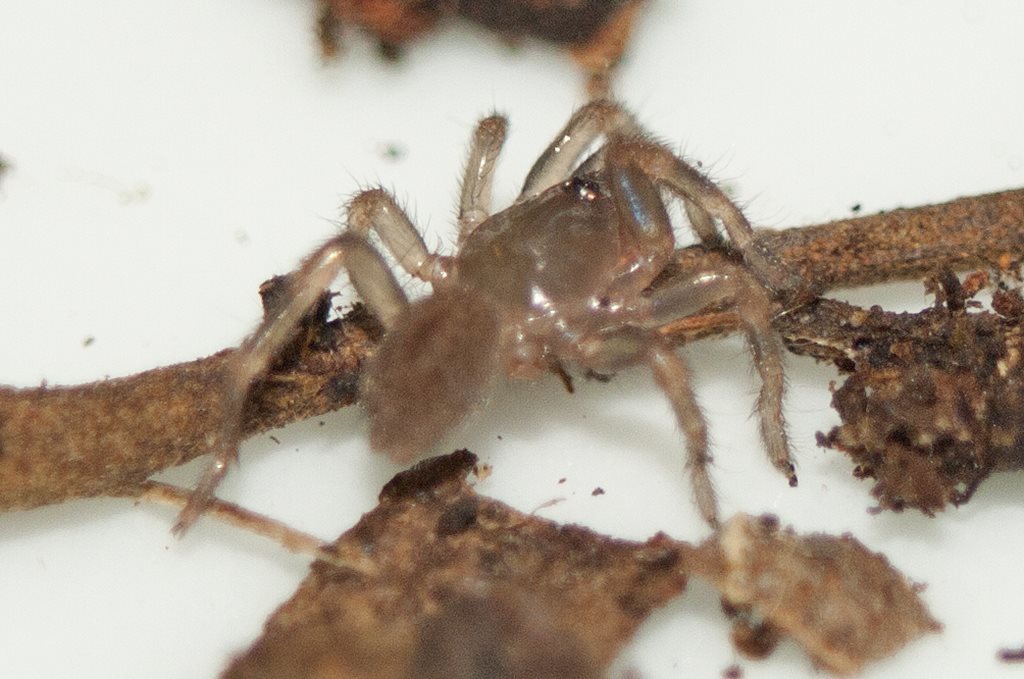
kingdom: Animalia
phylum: Arthropoda
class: Arachnida
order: Araneae
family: Barychelidae
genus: Seqocrypta
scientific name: Seqocrypta jakara
